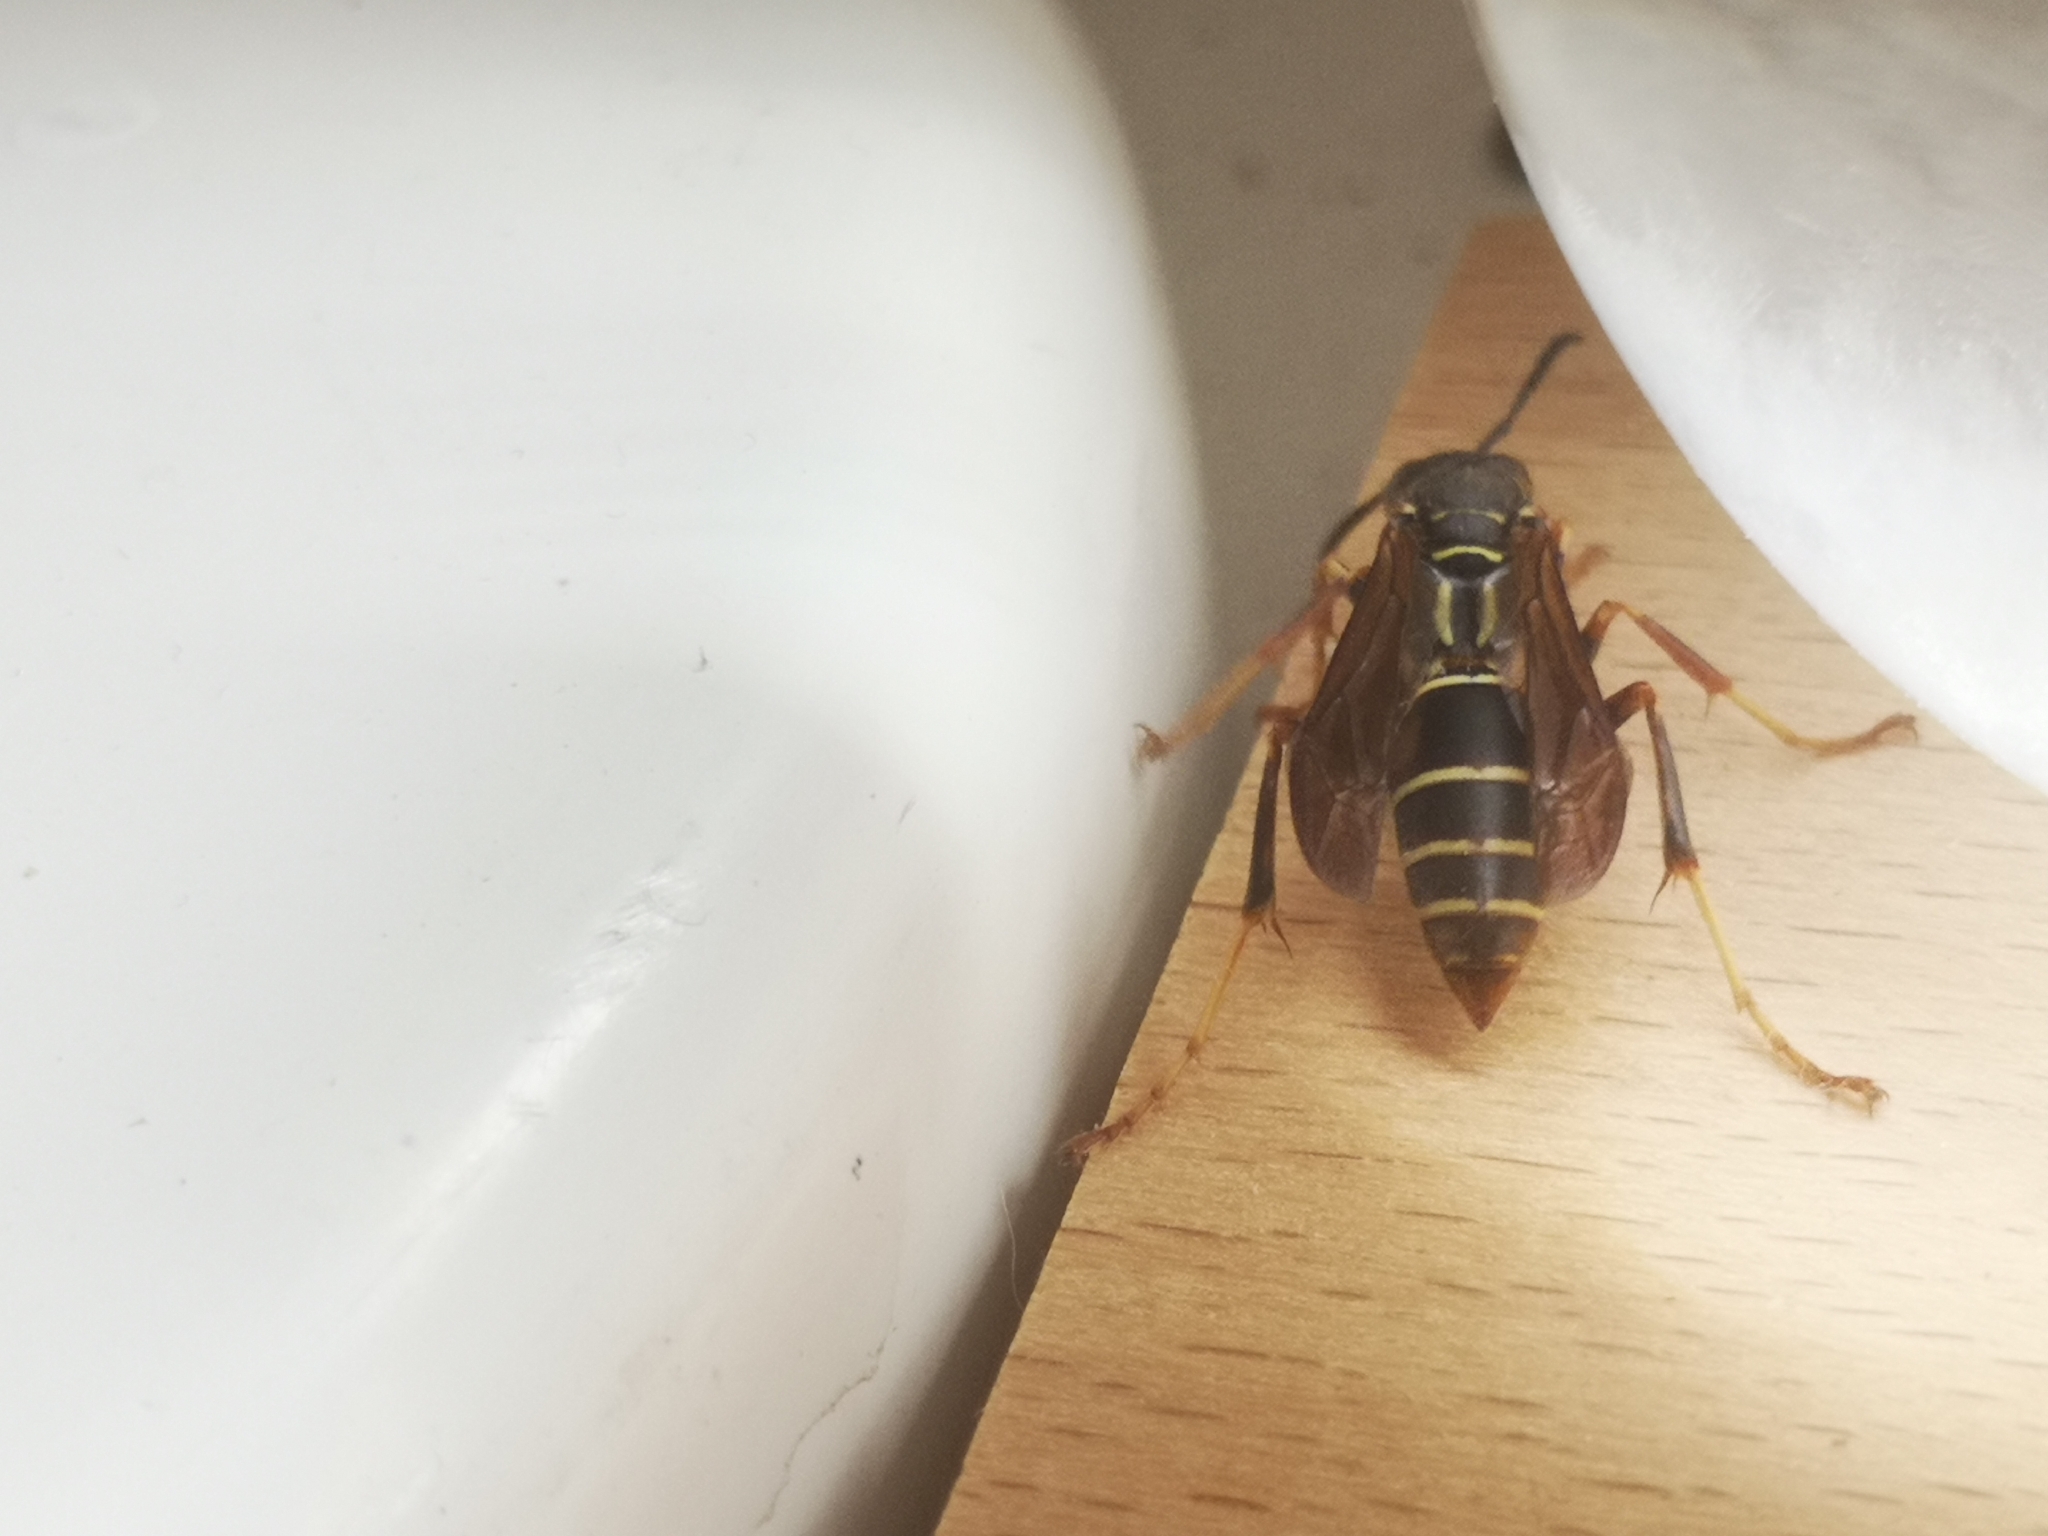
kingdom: Animalia
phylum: Arthropoda
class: Insecta
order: Hymenoptera
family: Eumenidae
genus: Polistes
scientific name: Polistes fuscatus
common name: Dark paper wasp
